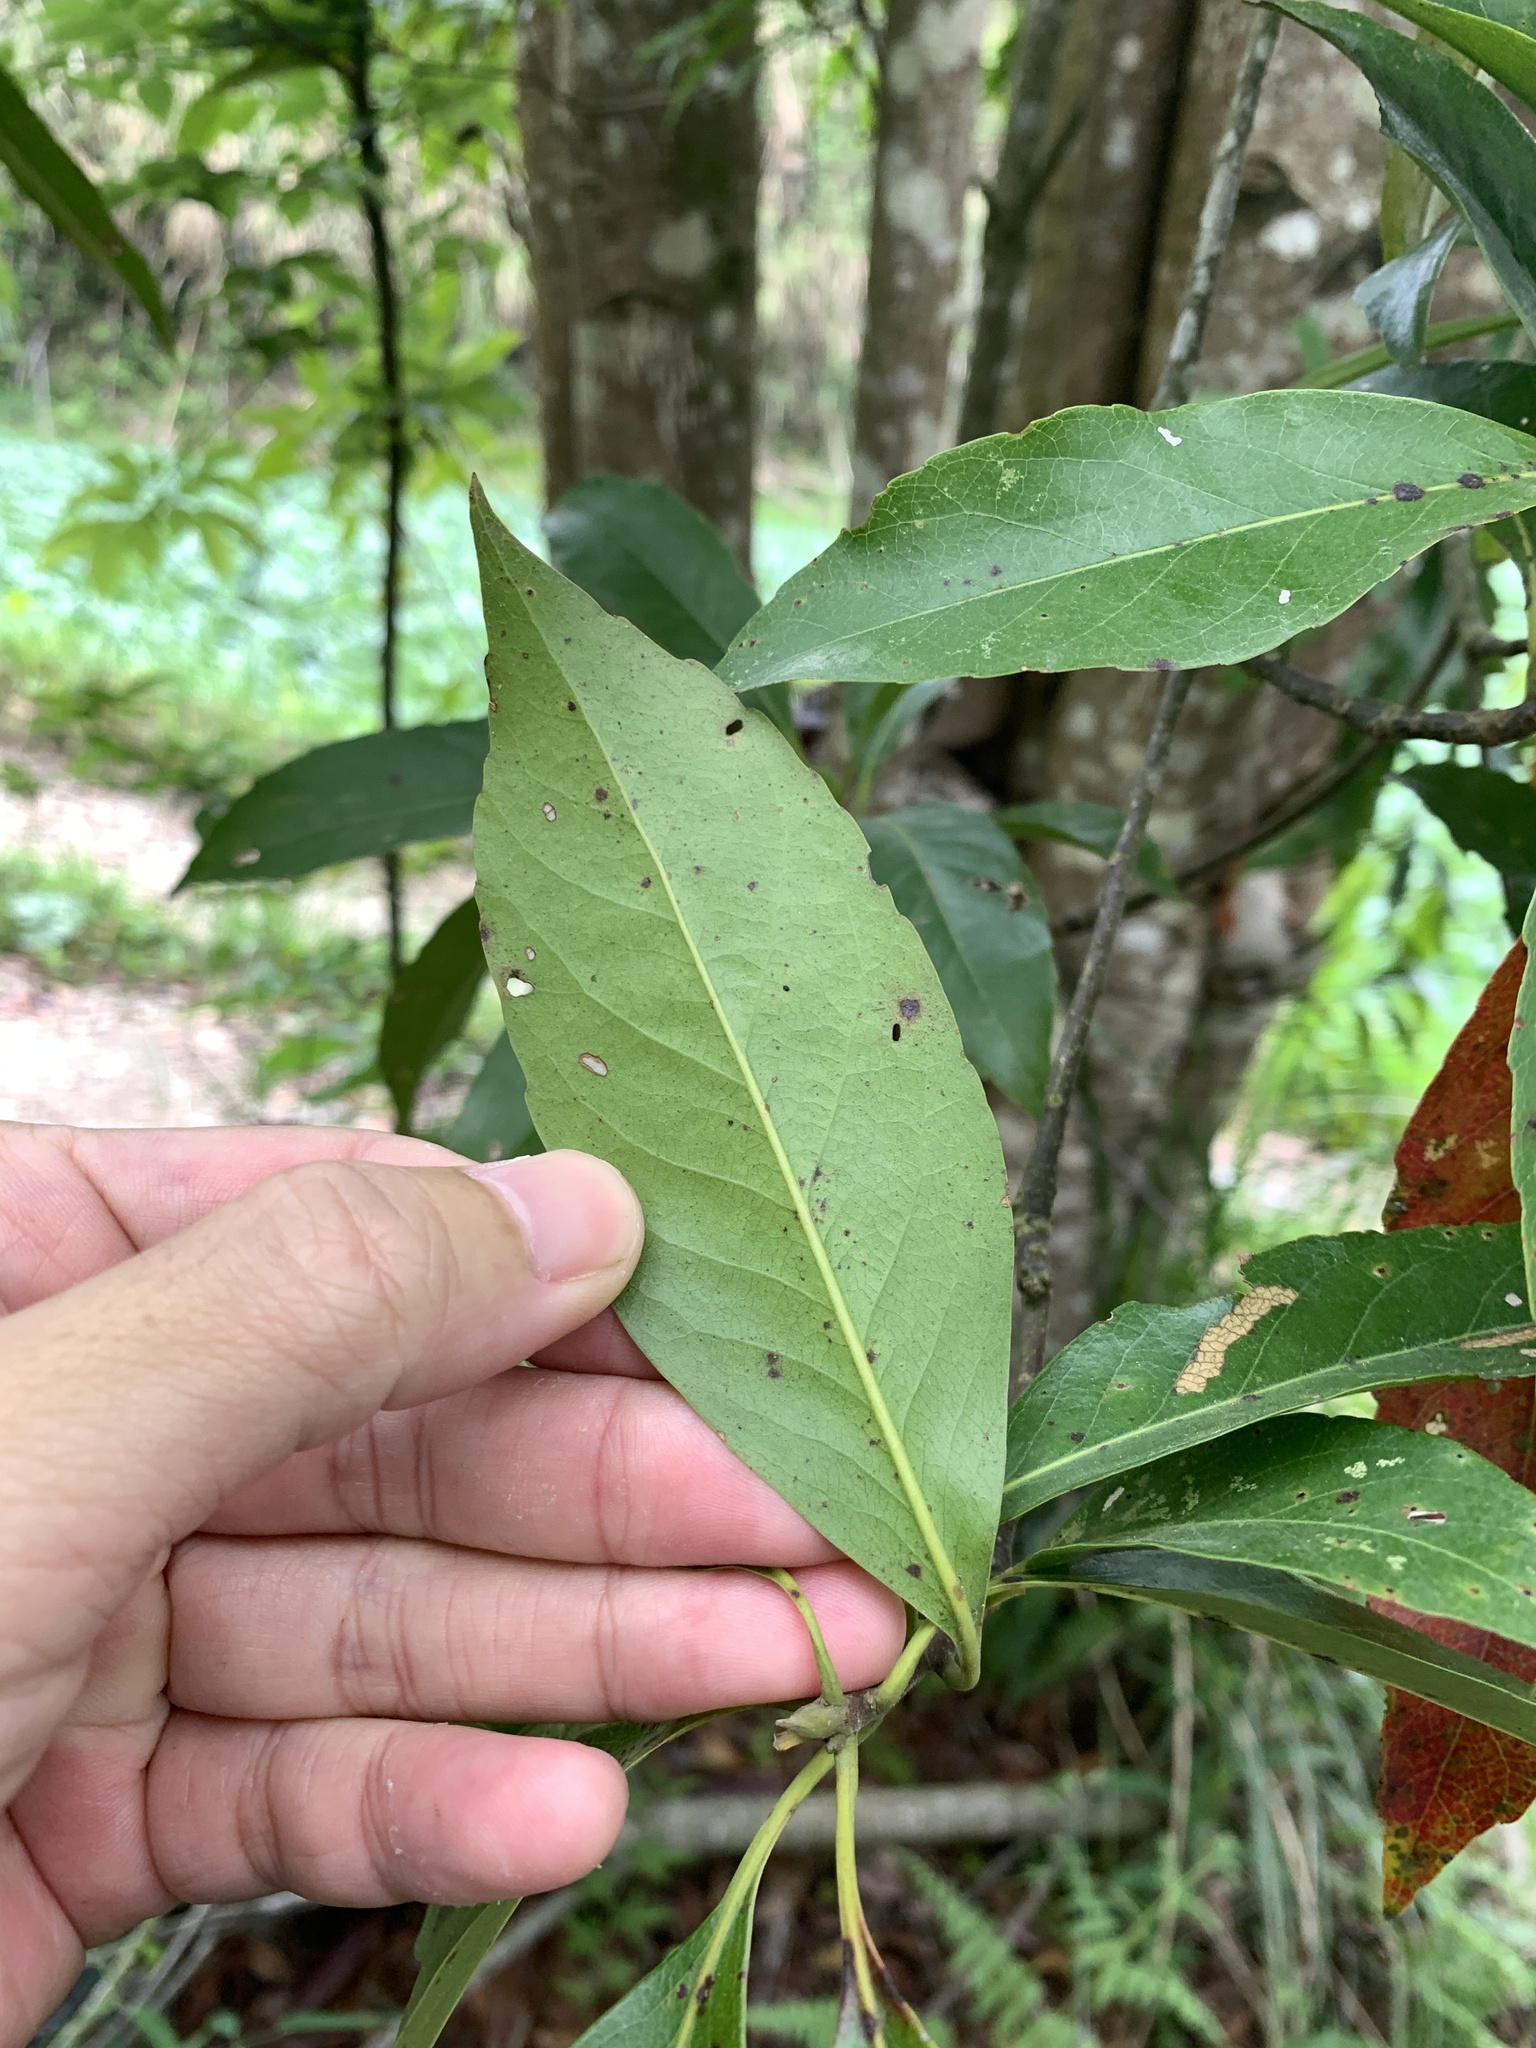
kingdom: Plantae
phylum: Tracheophyta
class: Magnoliopsida
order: Ericales
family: Theaceae
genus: Schima
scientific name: Schima superba
